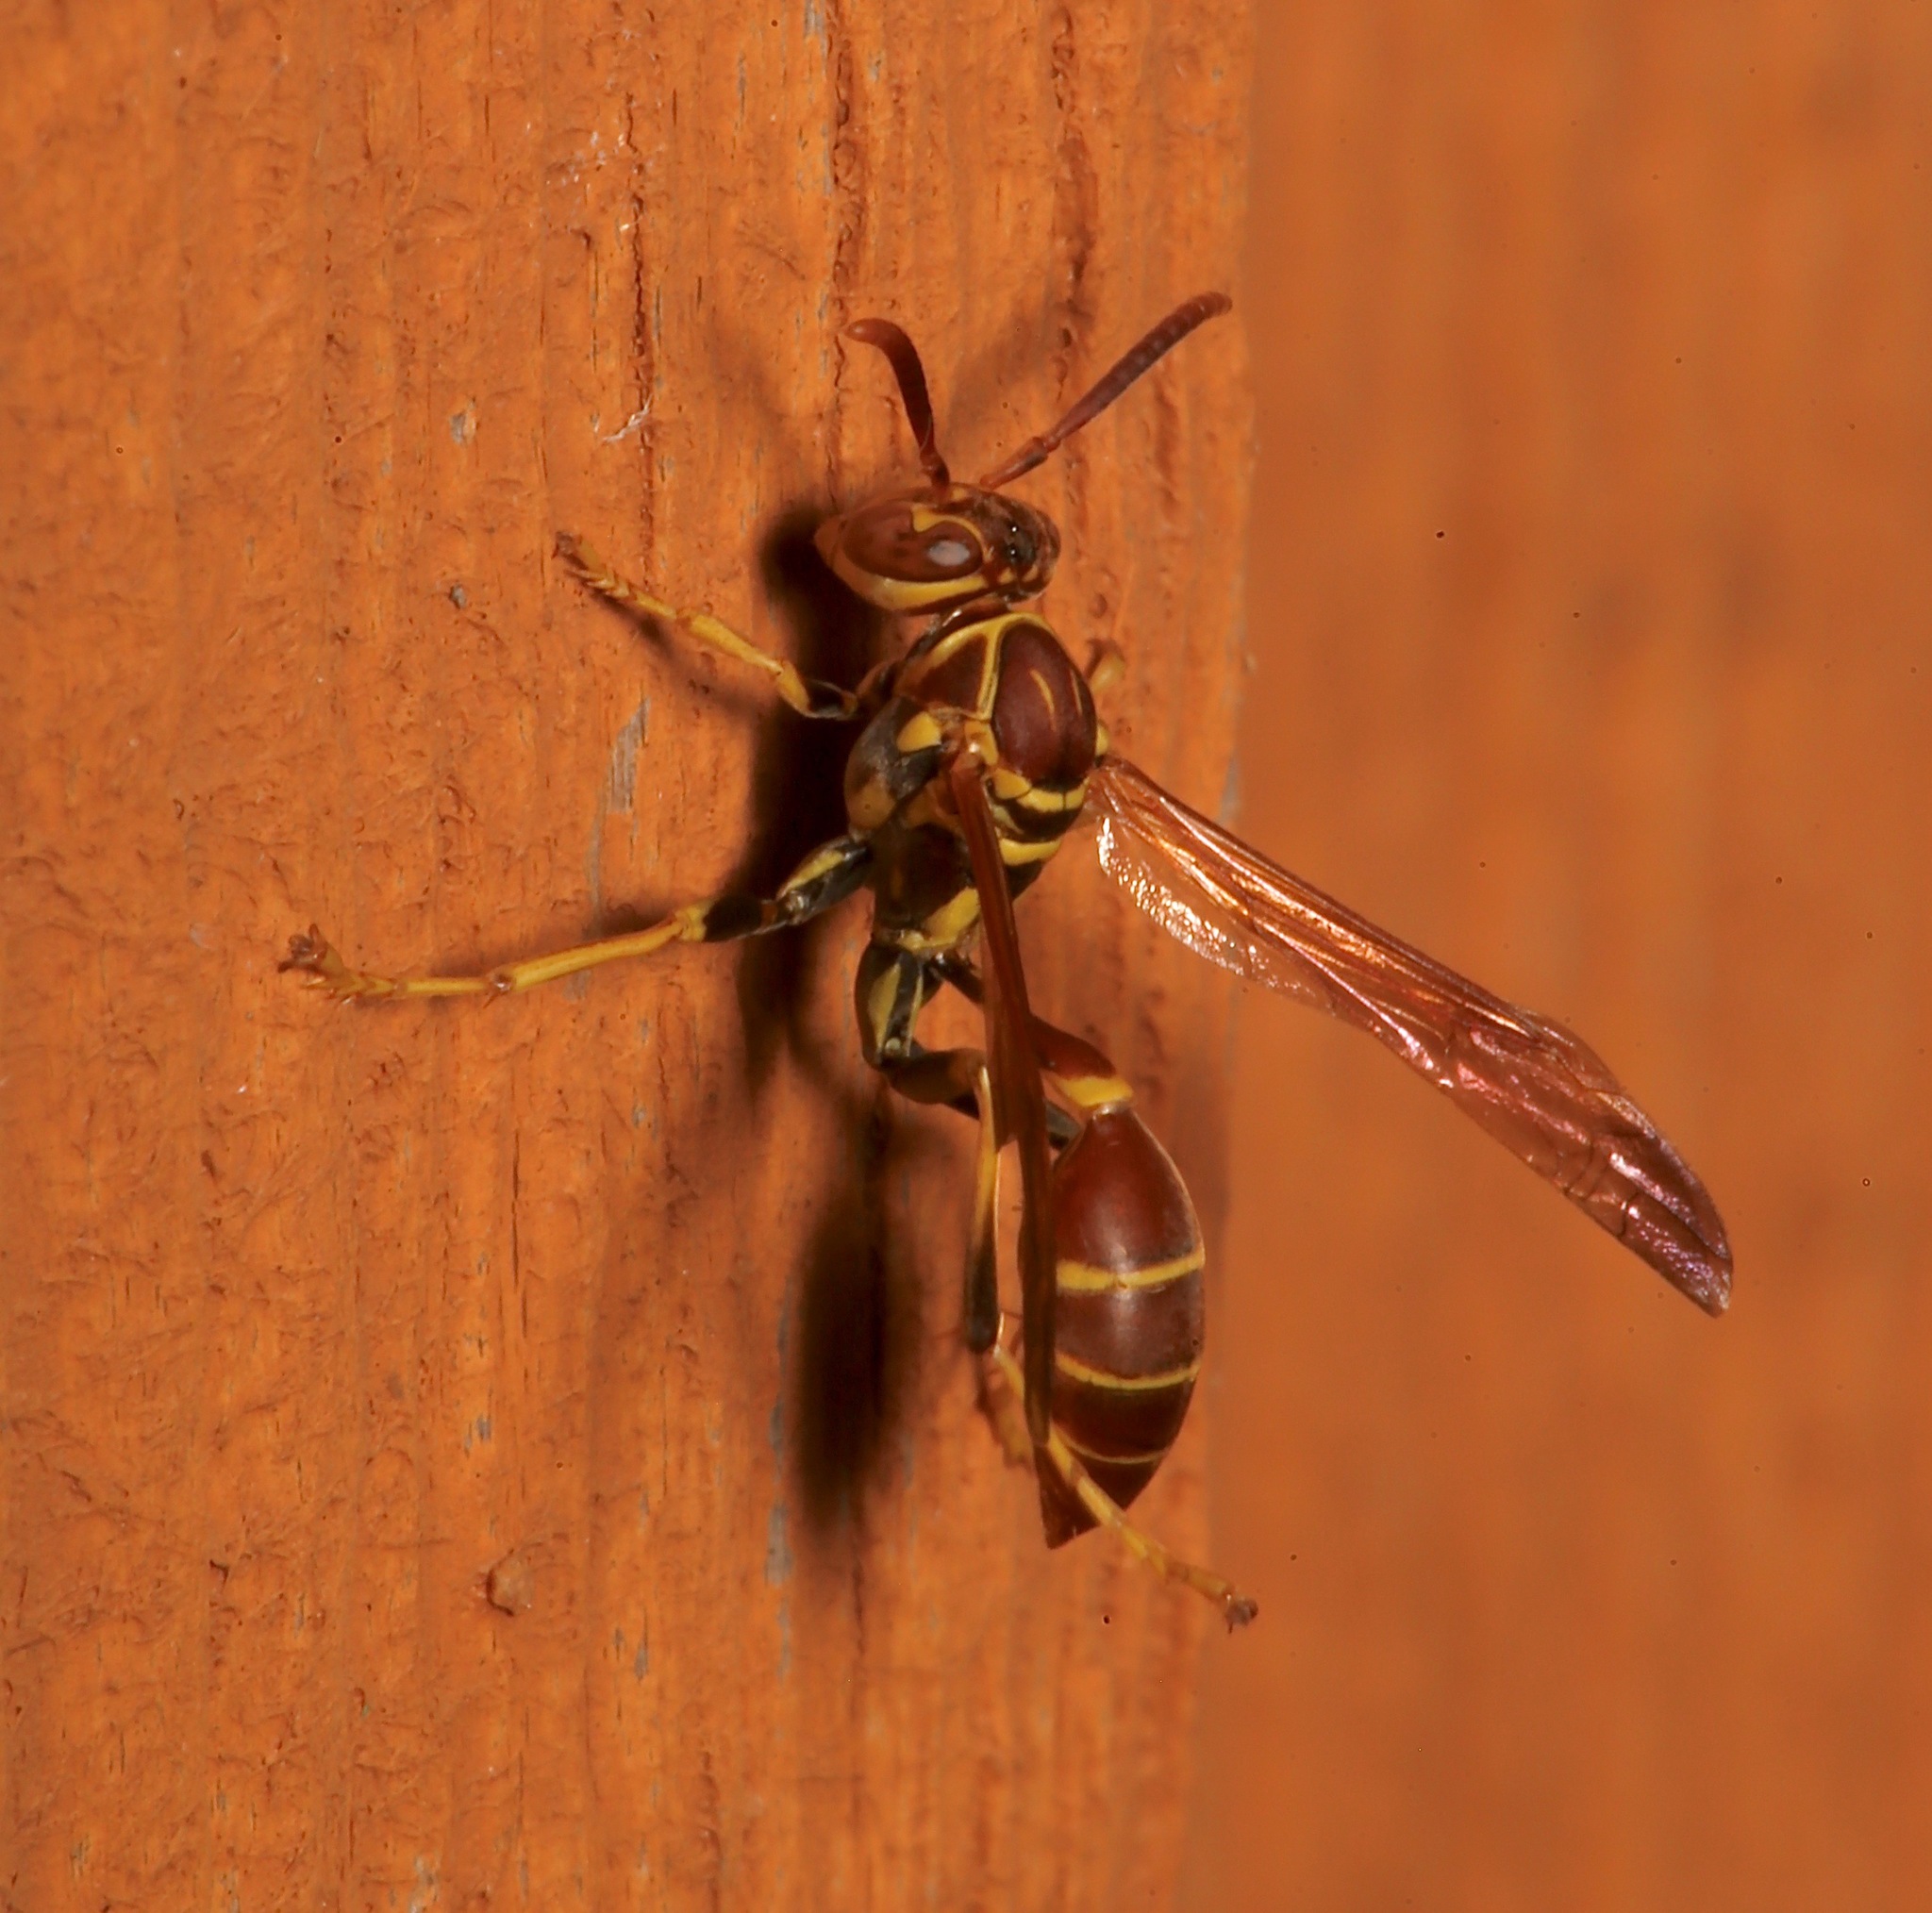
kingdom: Animalia
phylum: Arthropoda
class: Insecta
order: Hymenoptera
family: Vespidae
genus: Mischocyttarus
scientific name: Mischocyttarus mexicanus
